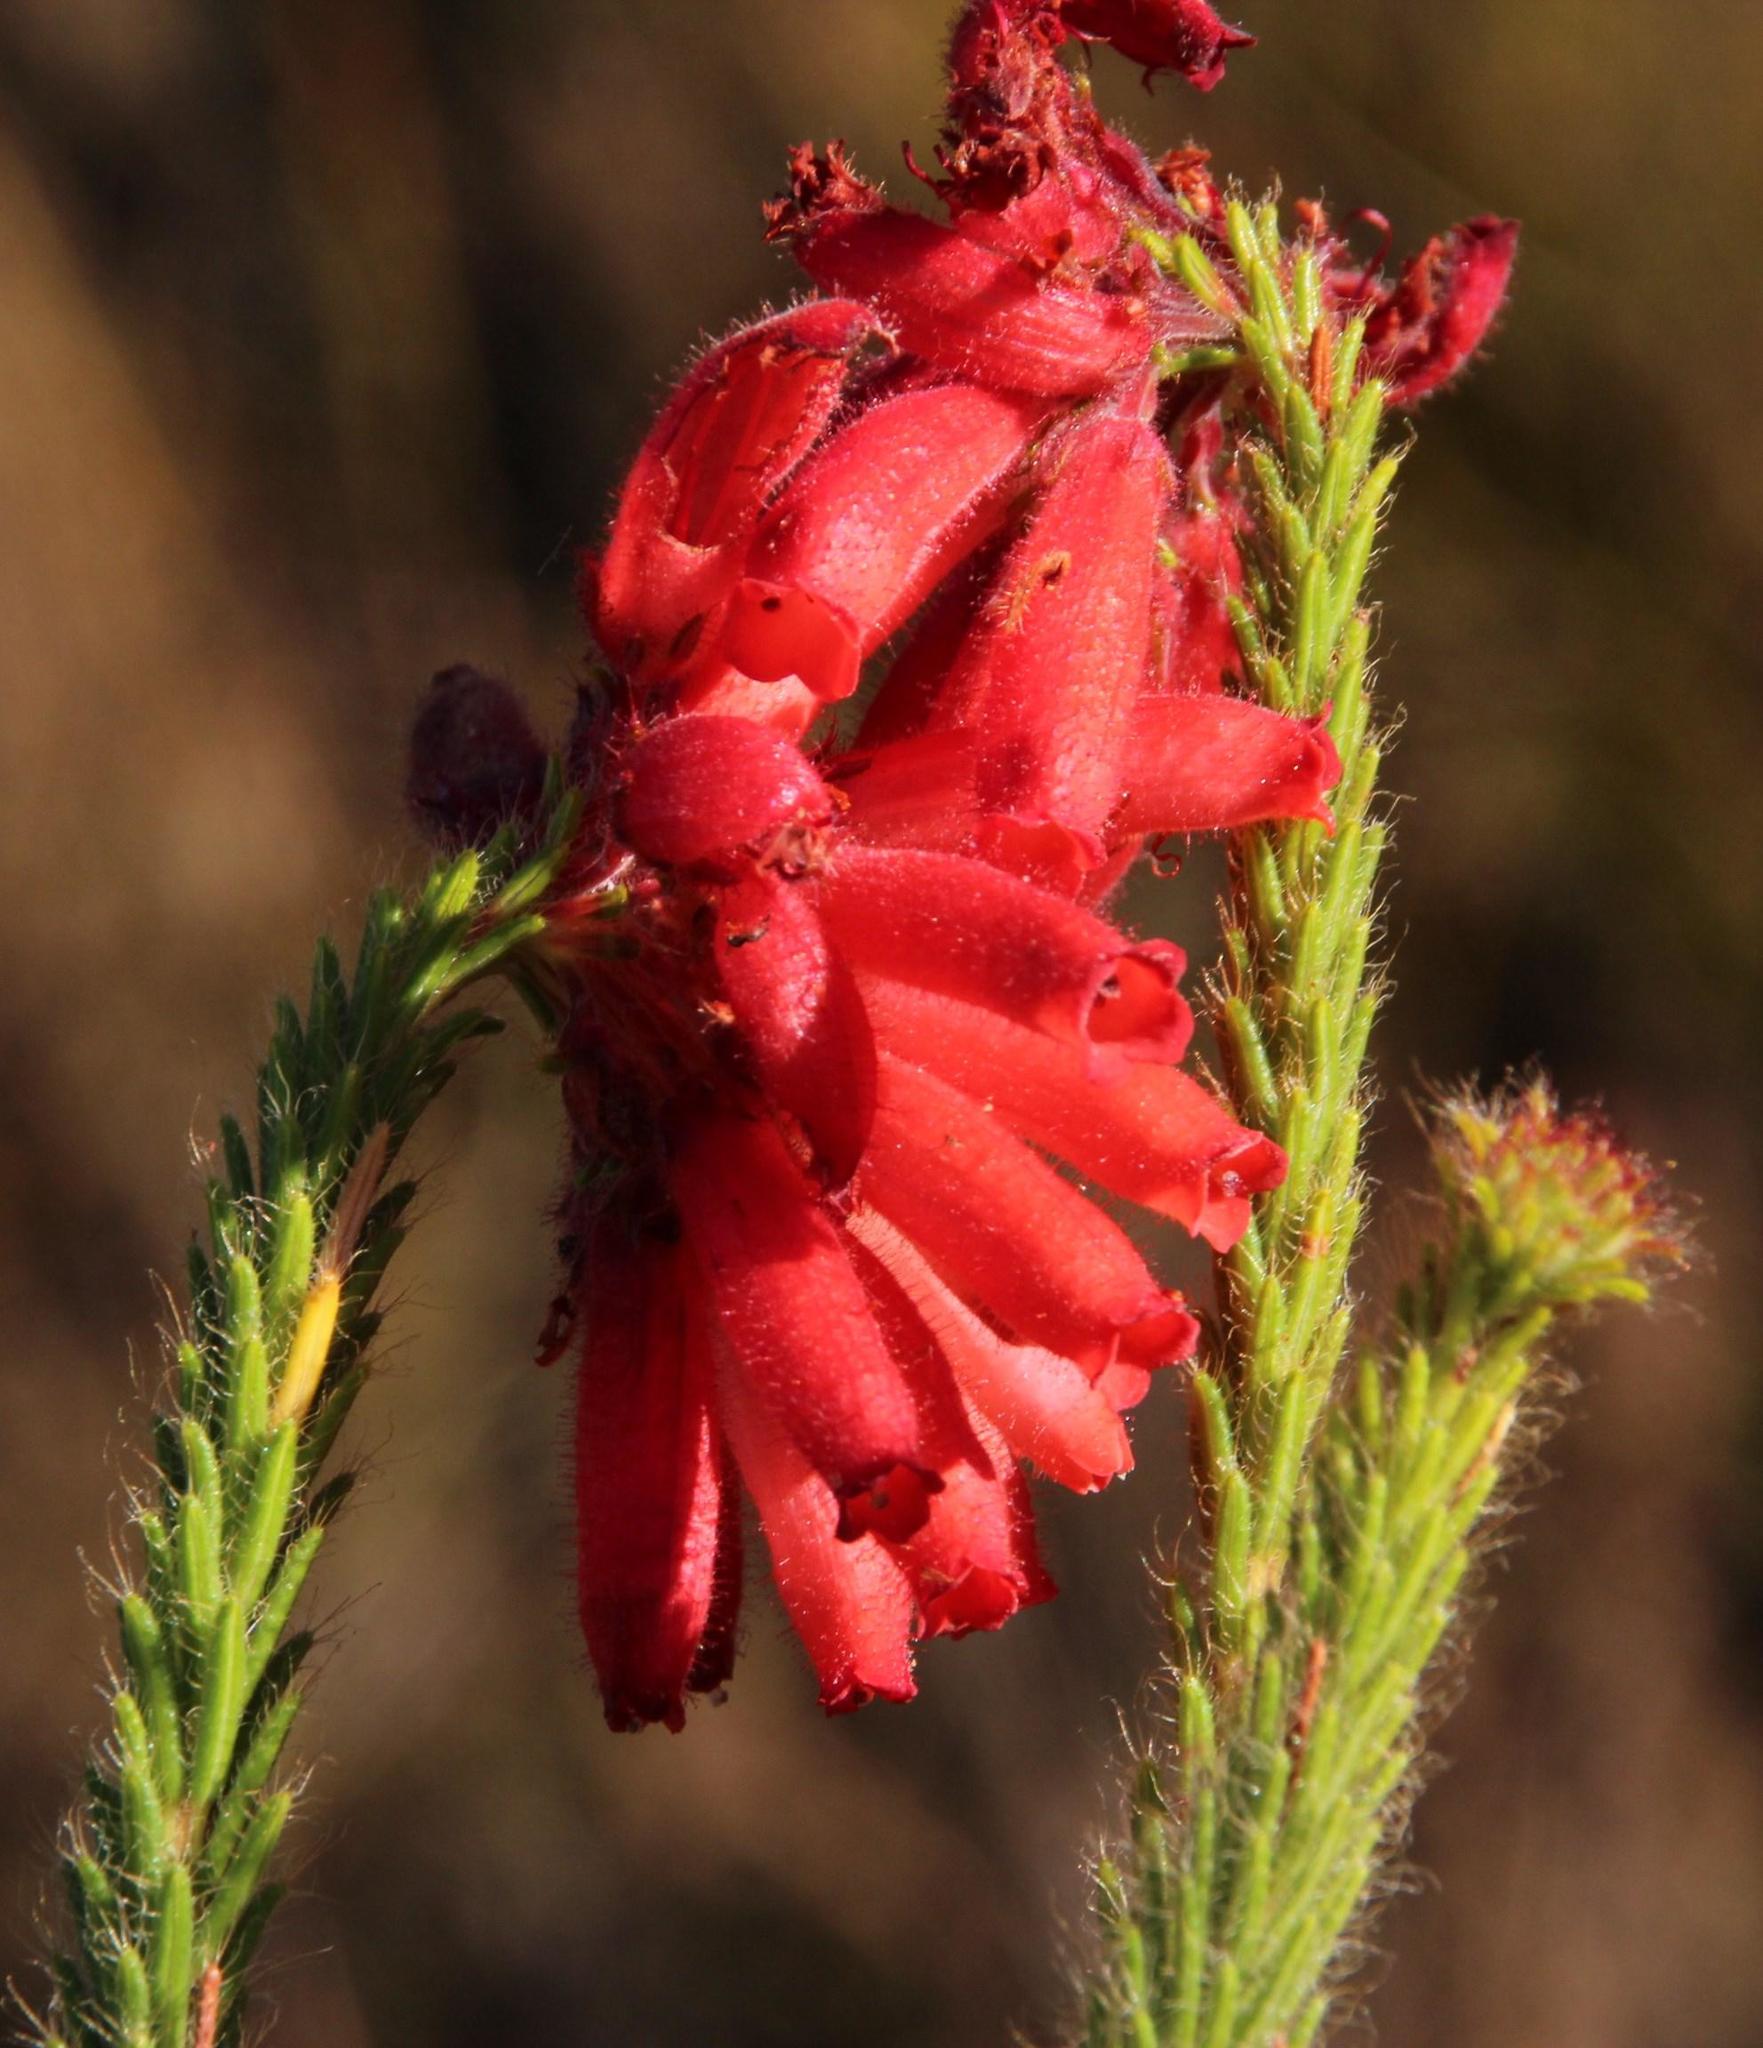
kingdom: Plantae
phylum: Tracheophyta
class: Magnoliopsida
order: Ericales
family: Ericaceae
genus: Erica
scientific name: Erica cerinthoides
